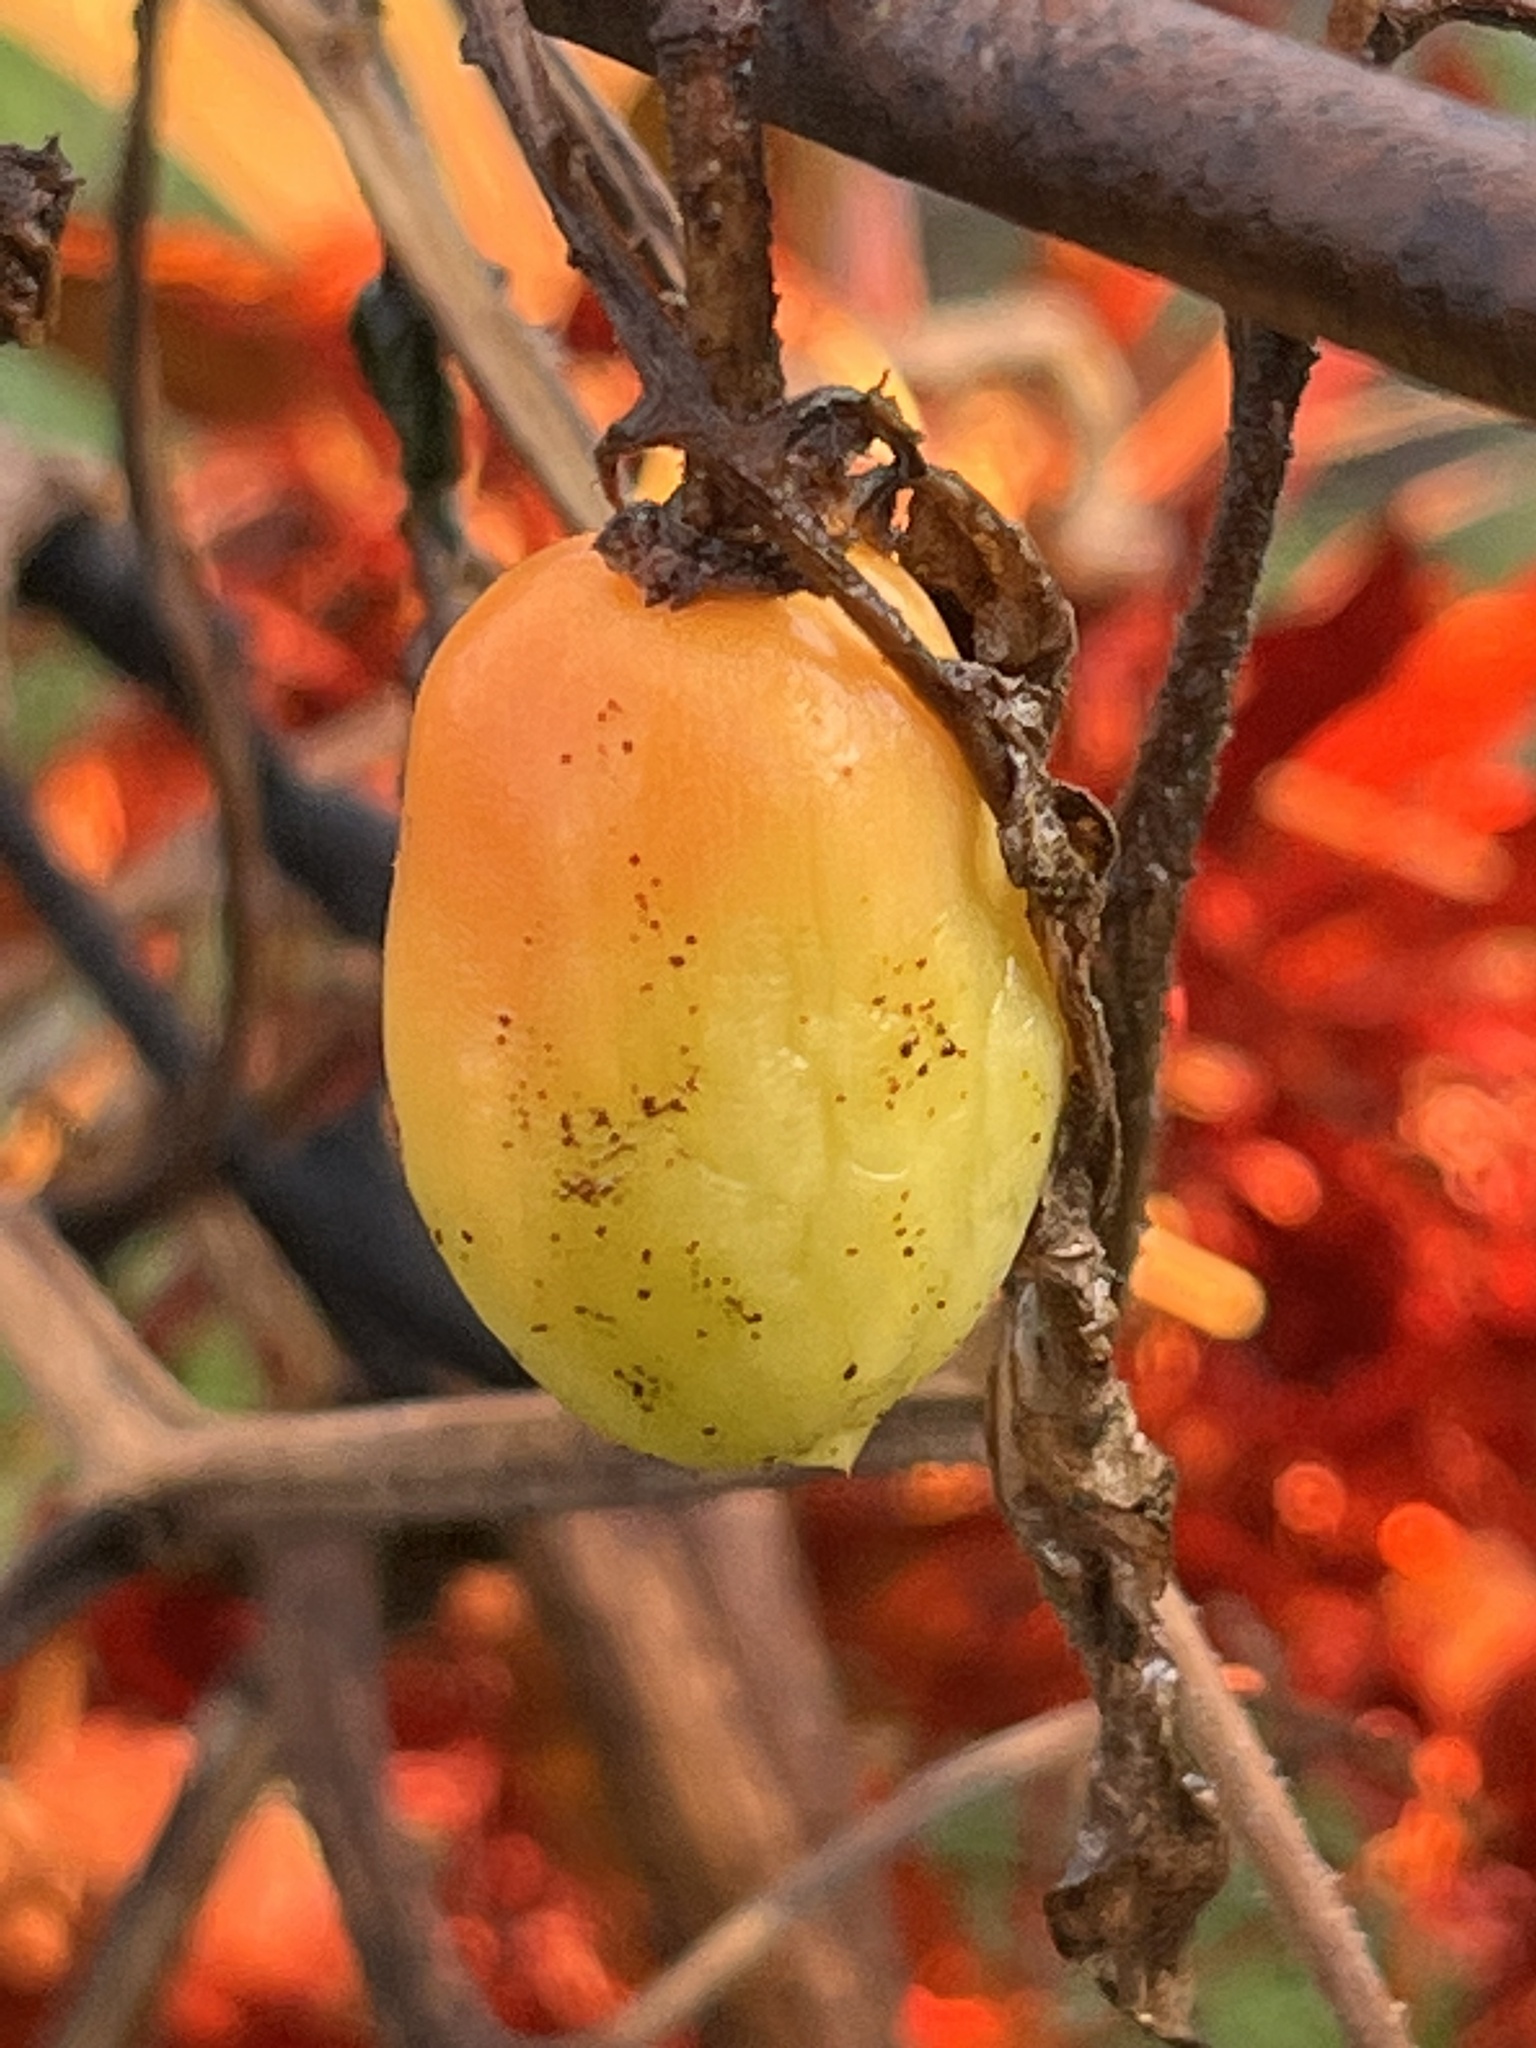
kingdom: Plantae
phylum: Tracheophyta
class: Magnoliopsida
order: Solanales
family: Solanaceae
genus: Solanum
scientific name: Solanum lycopersicum
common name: Garden tomato
